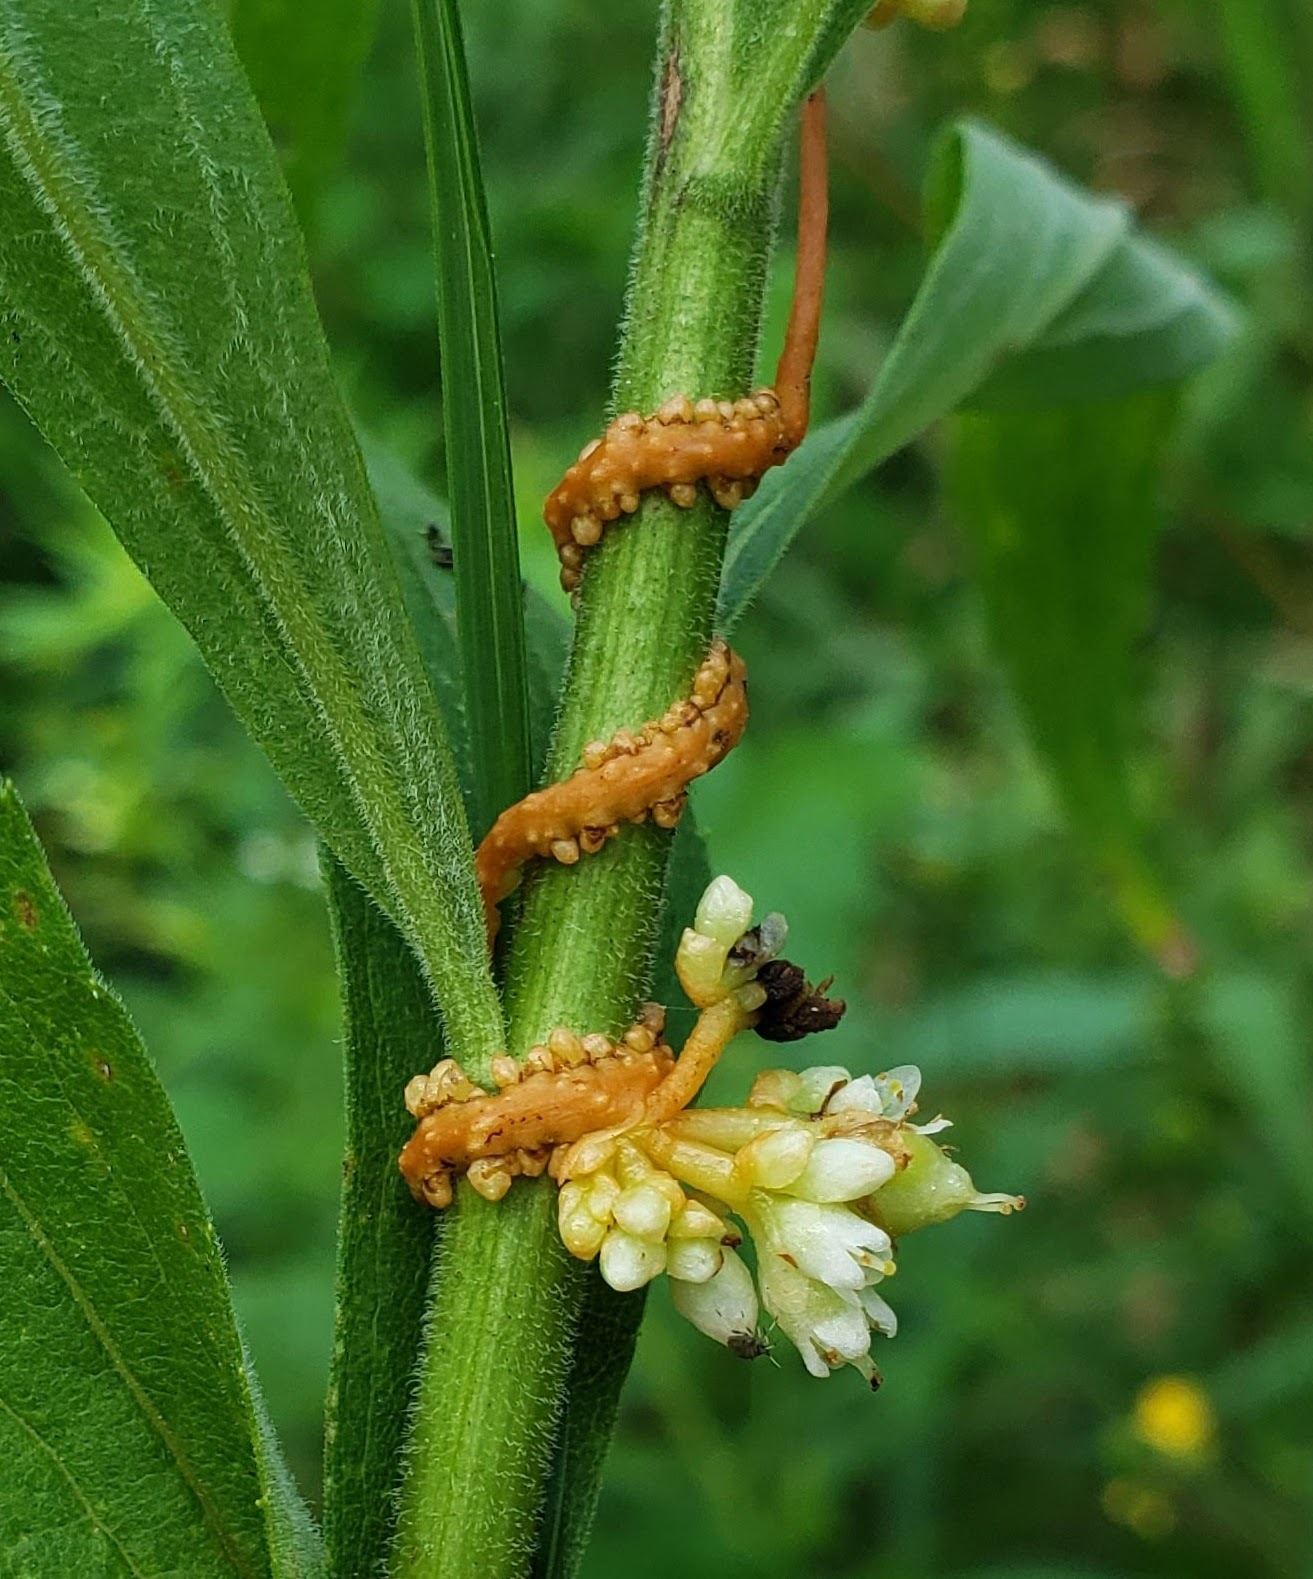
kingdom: Plantae
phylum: Tracheophyta
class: Magnoliopsida
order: Solanales
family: Convolvulaceae
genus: Cuscuta
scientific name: Cuscuta gronovii
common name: Common dodder
